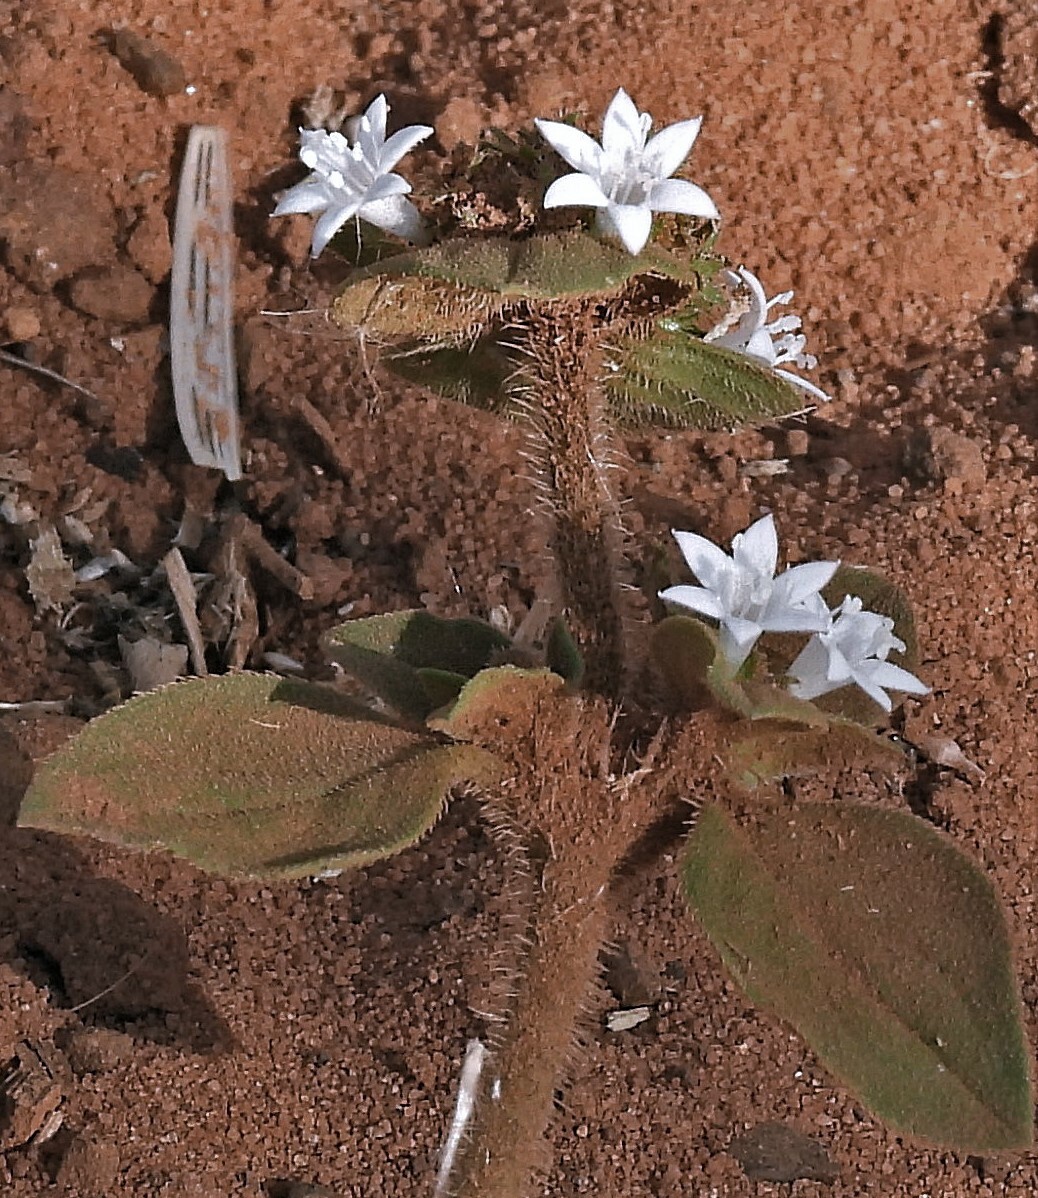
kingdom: Plantae
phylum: Tracheophyta
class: Magnoliopsida
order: Gentianales
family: Rubiaceae
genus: Richardia
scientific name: Richardia brasiliensis
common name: Tropical mexican clover
